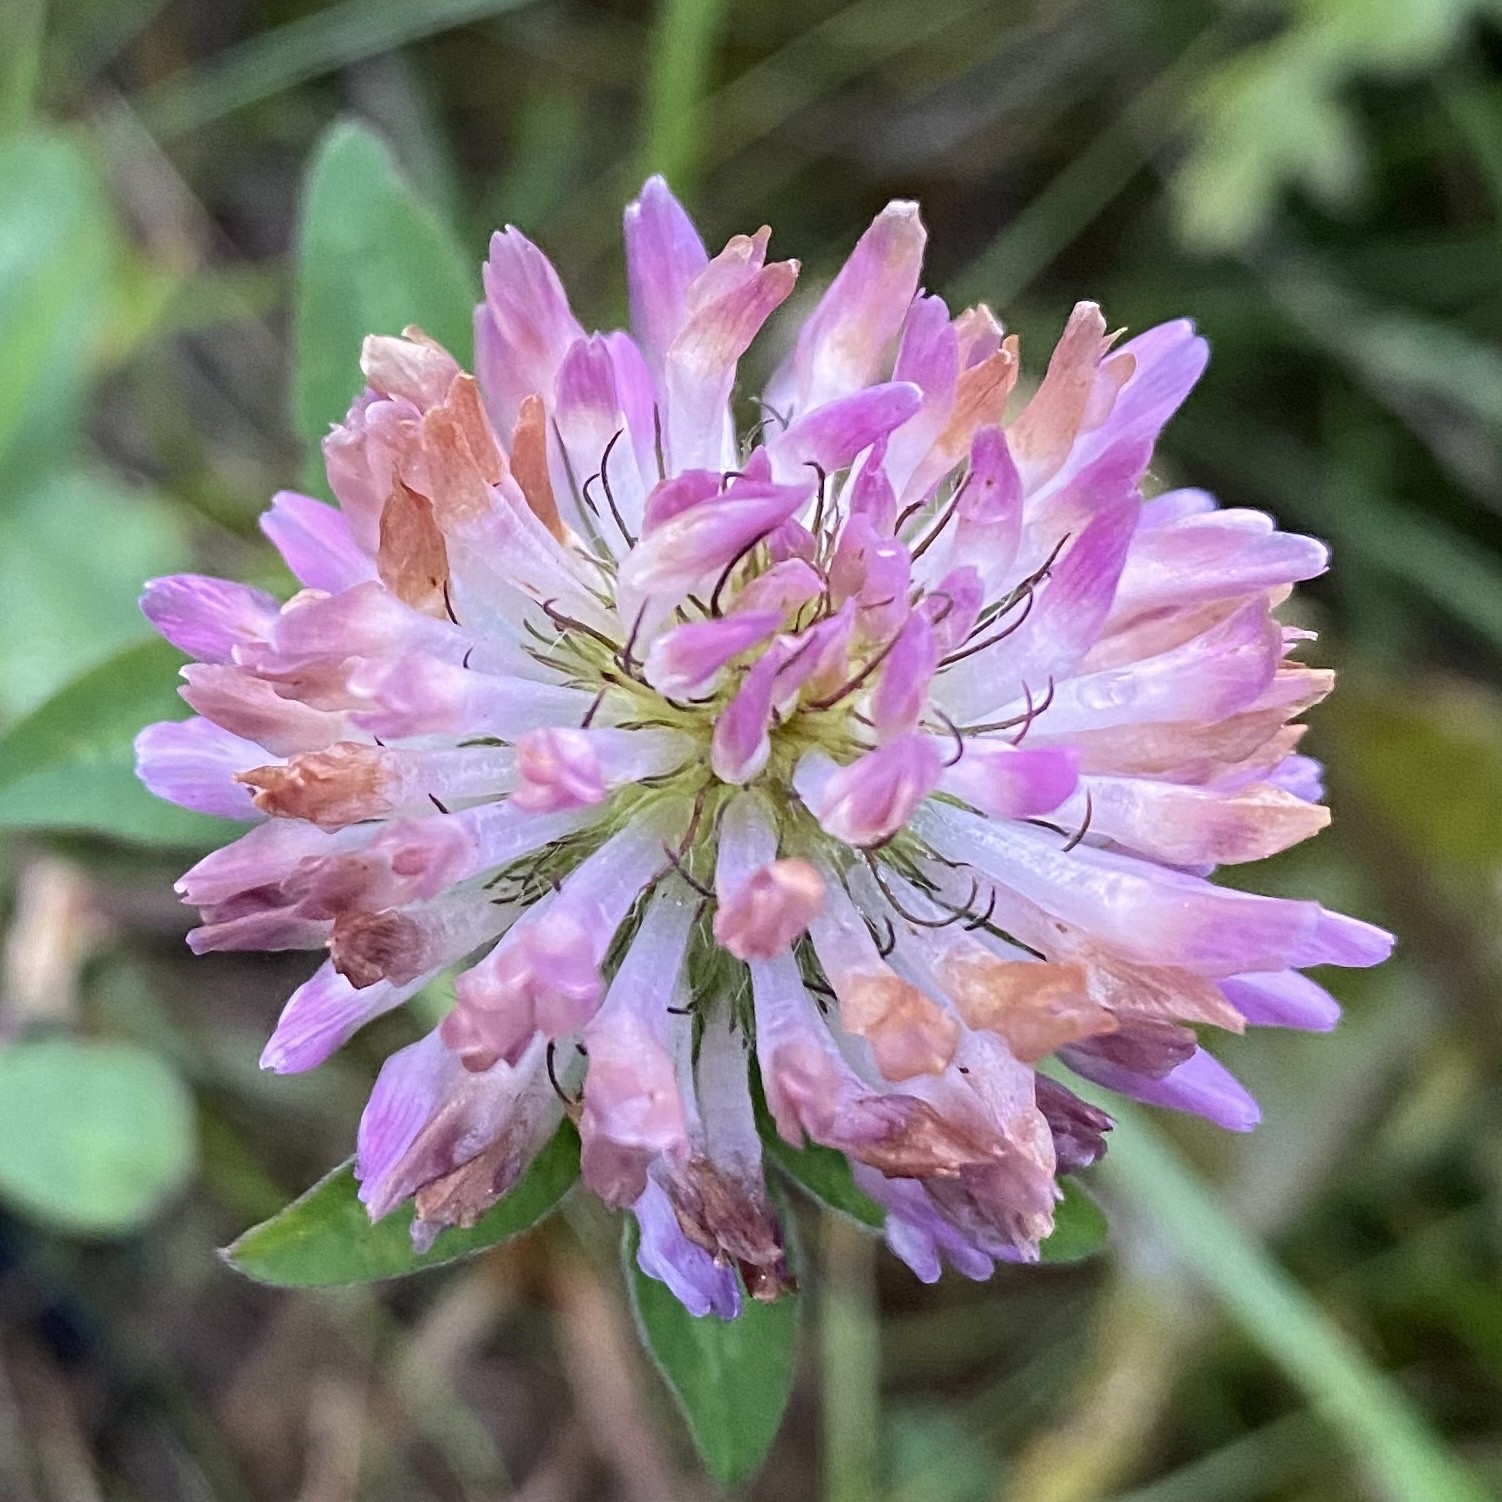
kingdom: Plantae
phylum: Tracheophyta
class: Magnoliopsida
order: Fabales
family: Fabaceae
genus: Trifolium
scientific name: Trifolium pratense
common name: Red clover
